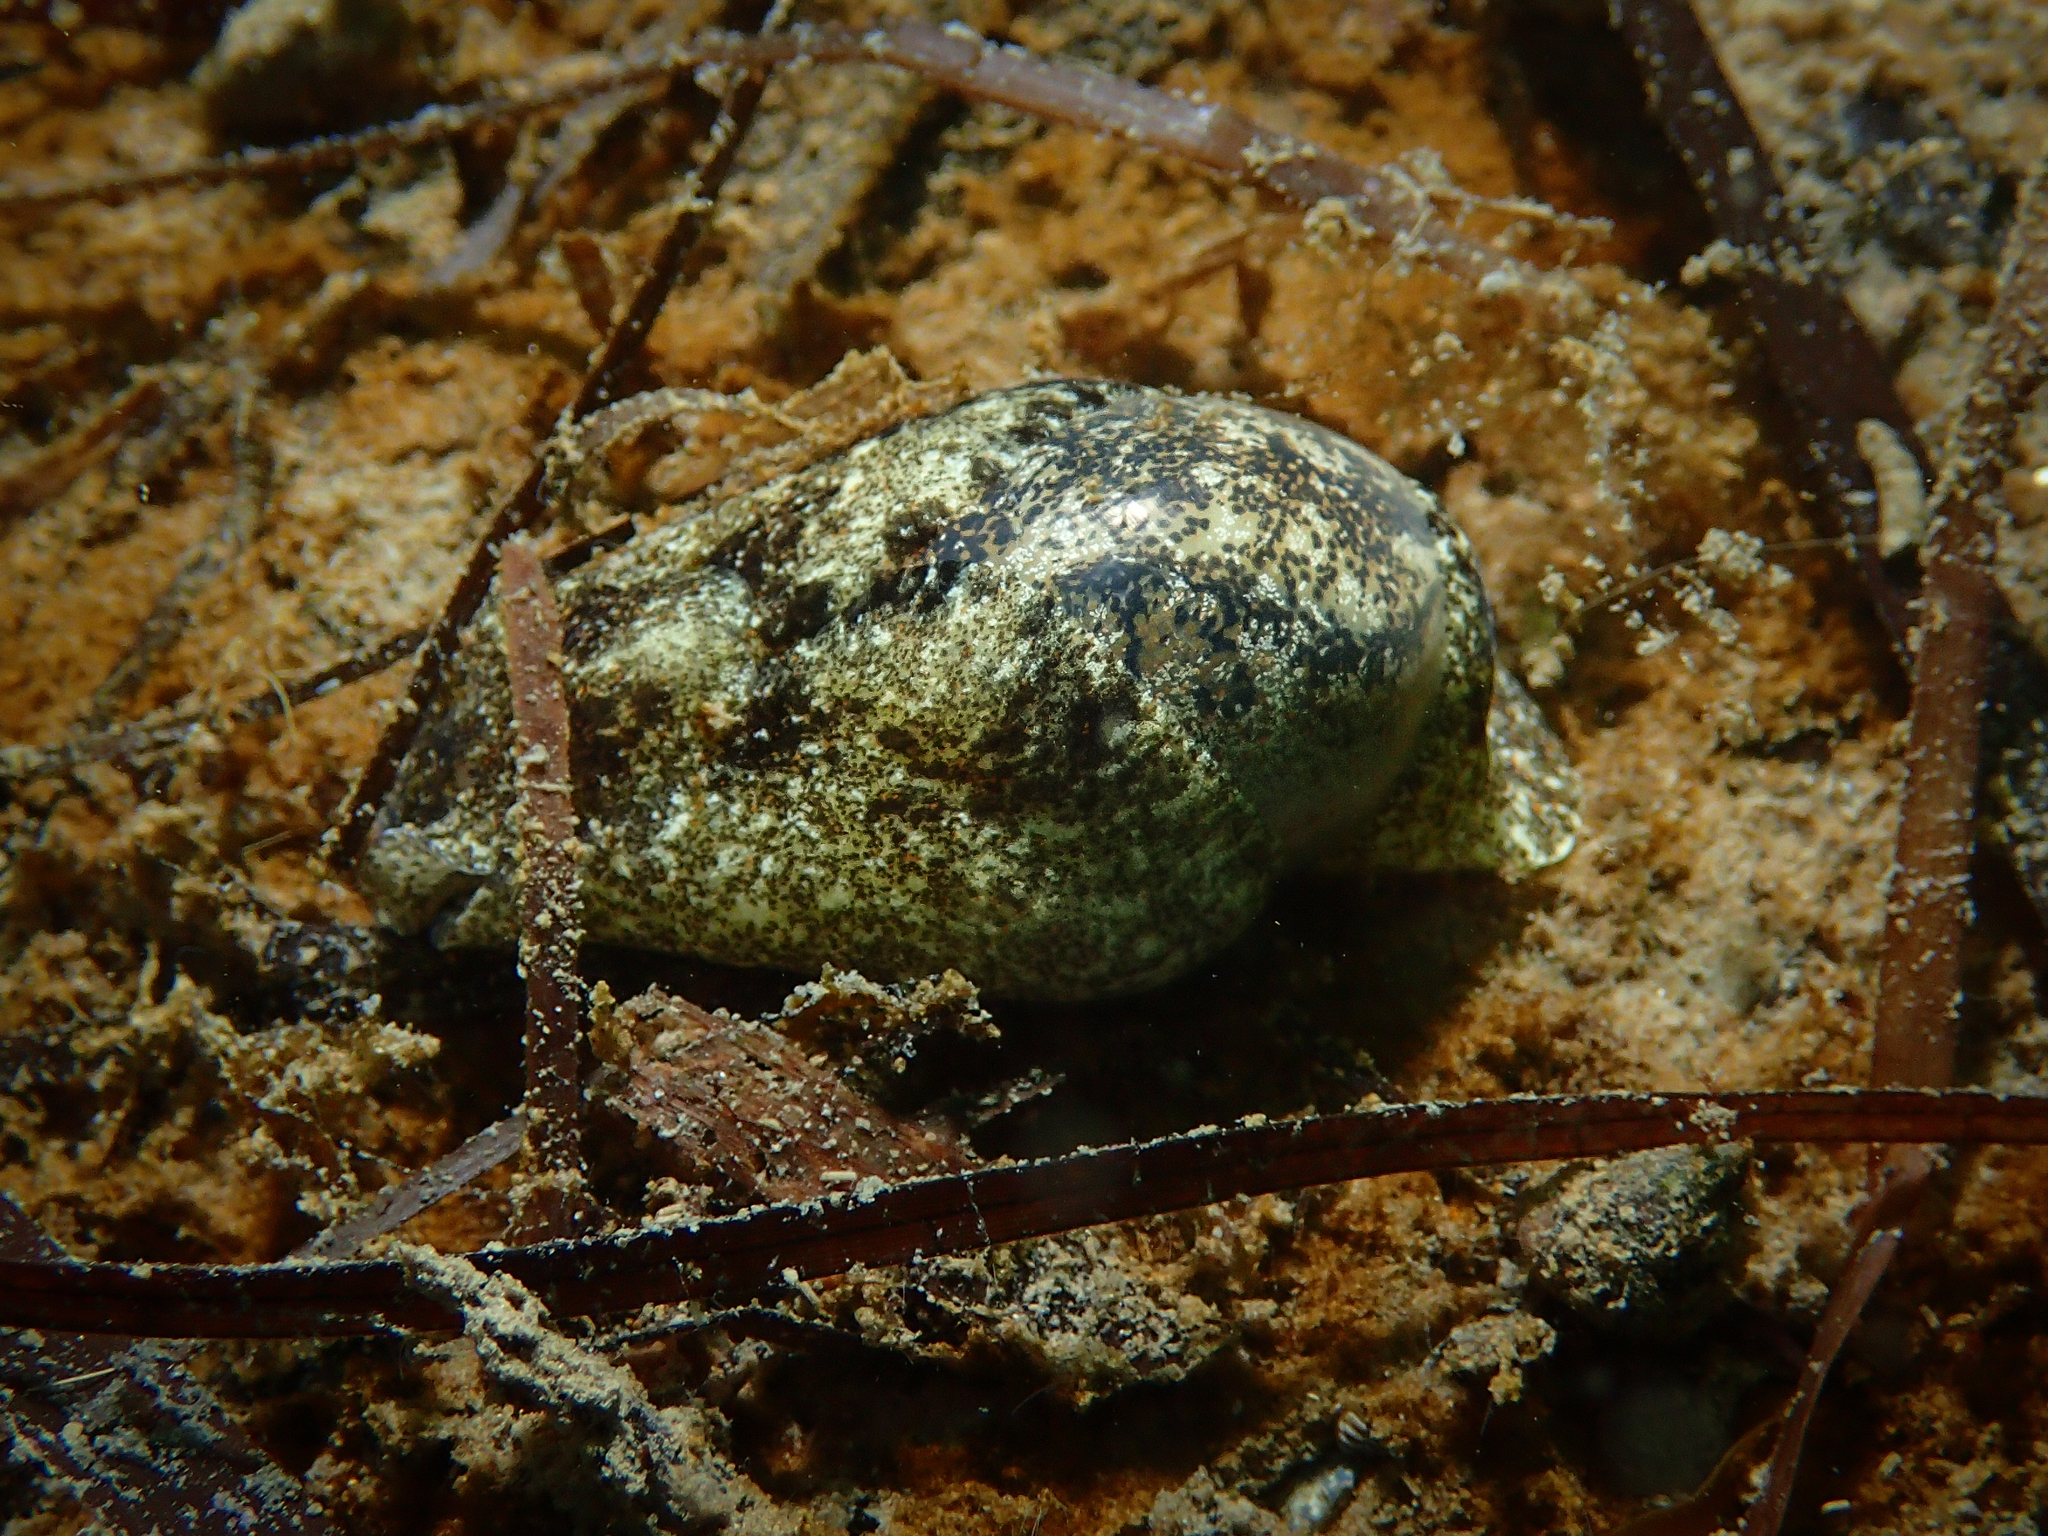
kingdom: Animalia
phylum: Mollusca
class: Gastropoda
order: Cephalaspidea
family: Haminoeidae
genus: Haminoea
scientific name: Haminoea navicula
